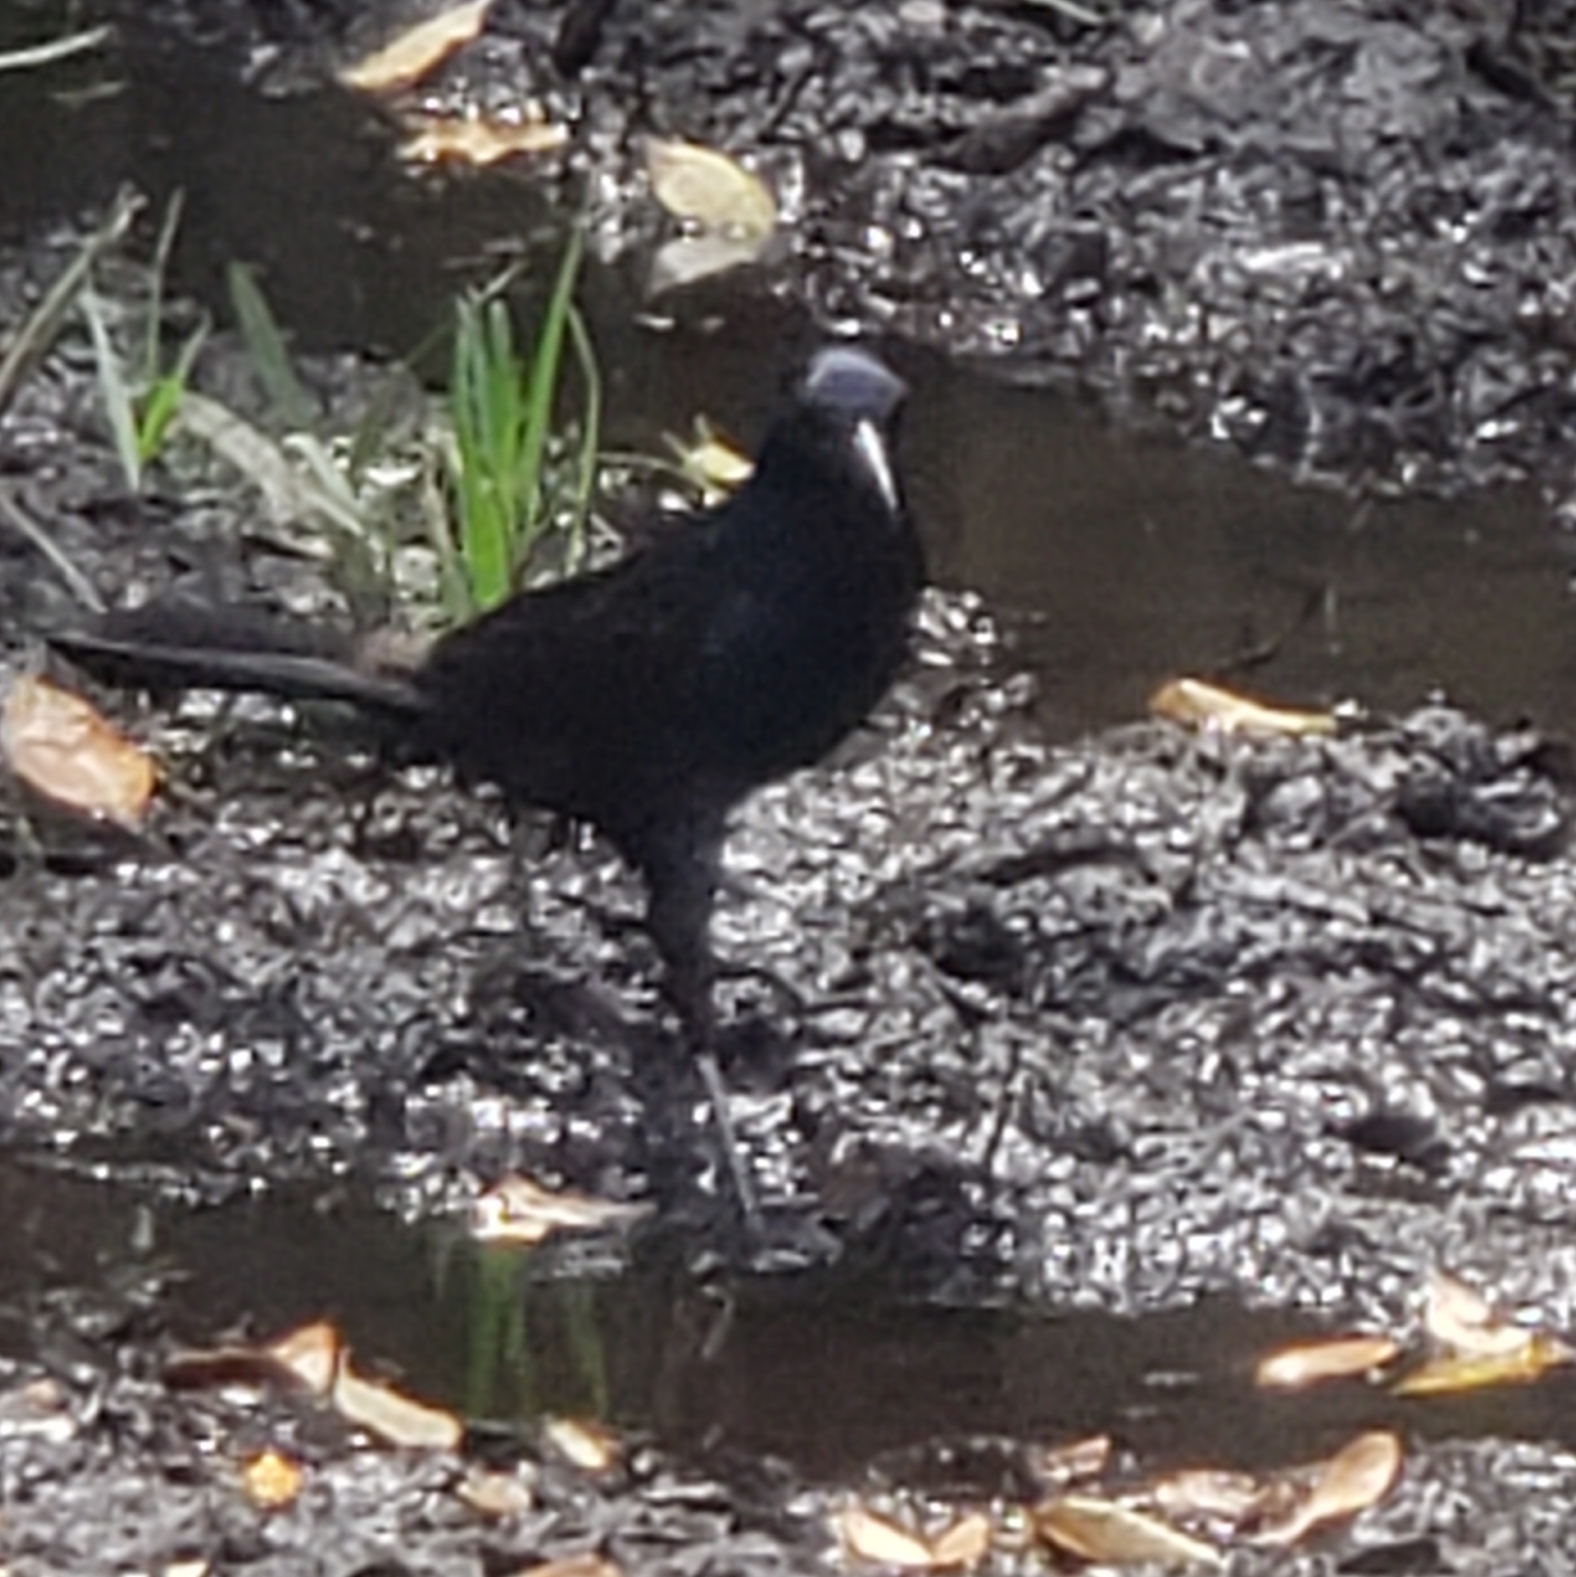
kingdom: Animalia
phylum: Chordata
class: Aves
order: Passeriformes
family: Icteridae
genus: Quiscalus
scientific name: Quiscalus major
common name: Boat-tailed grackle
